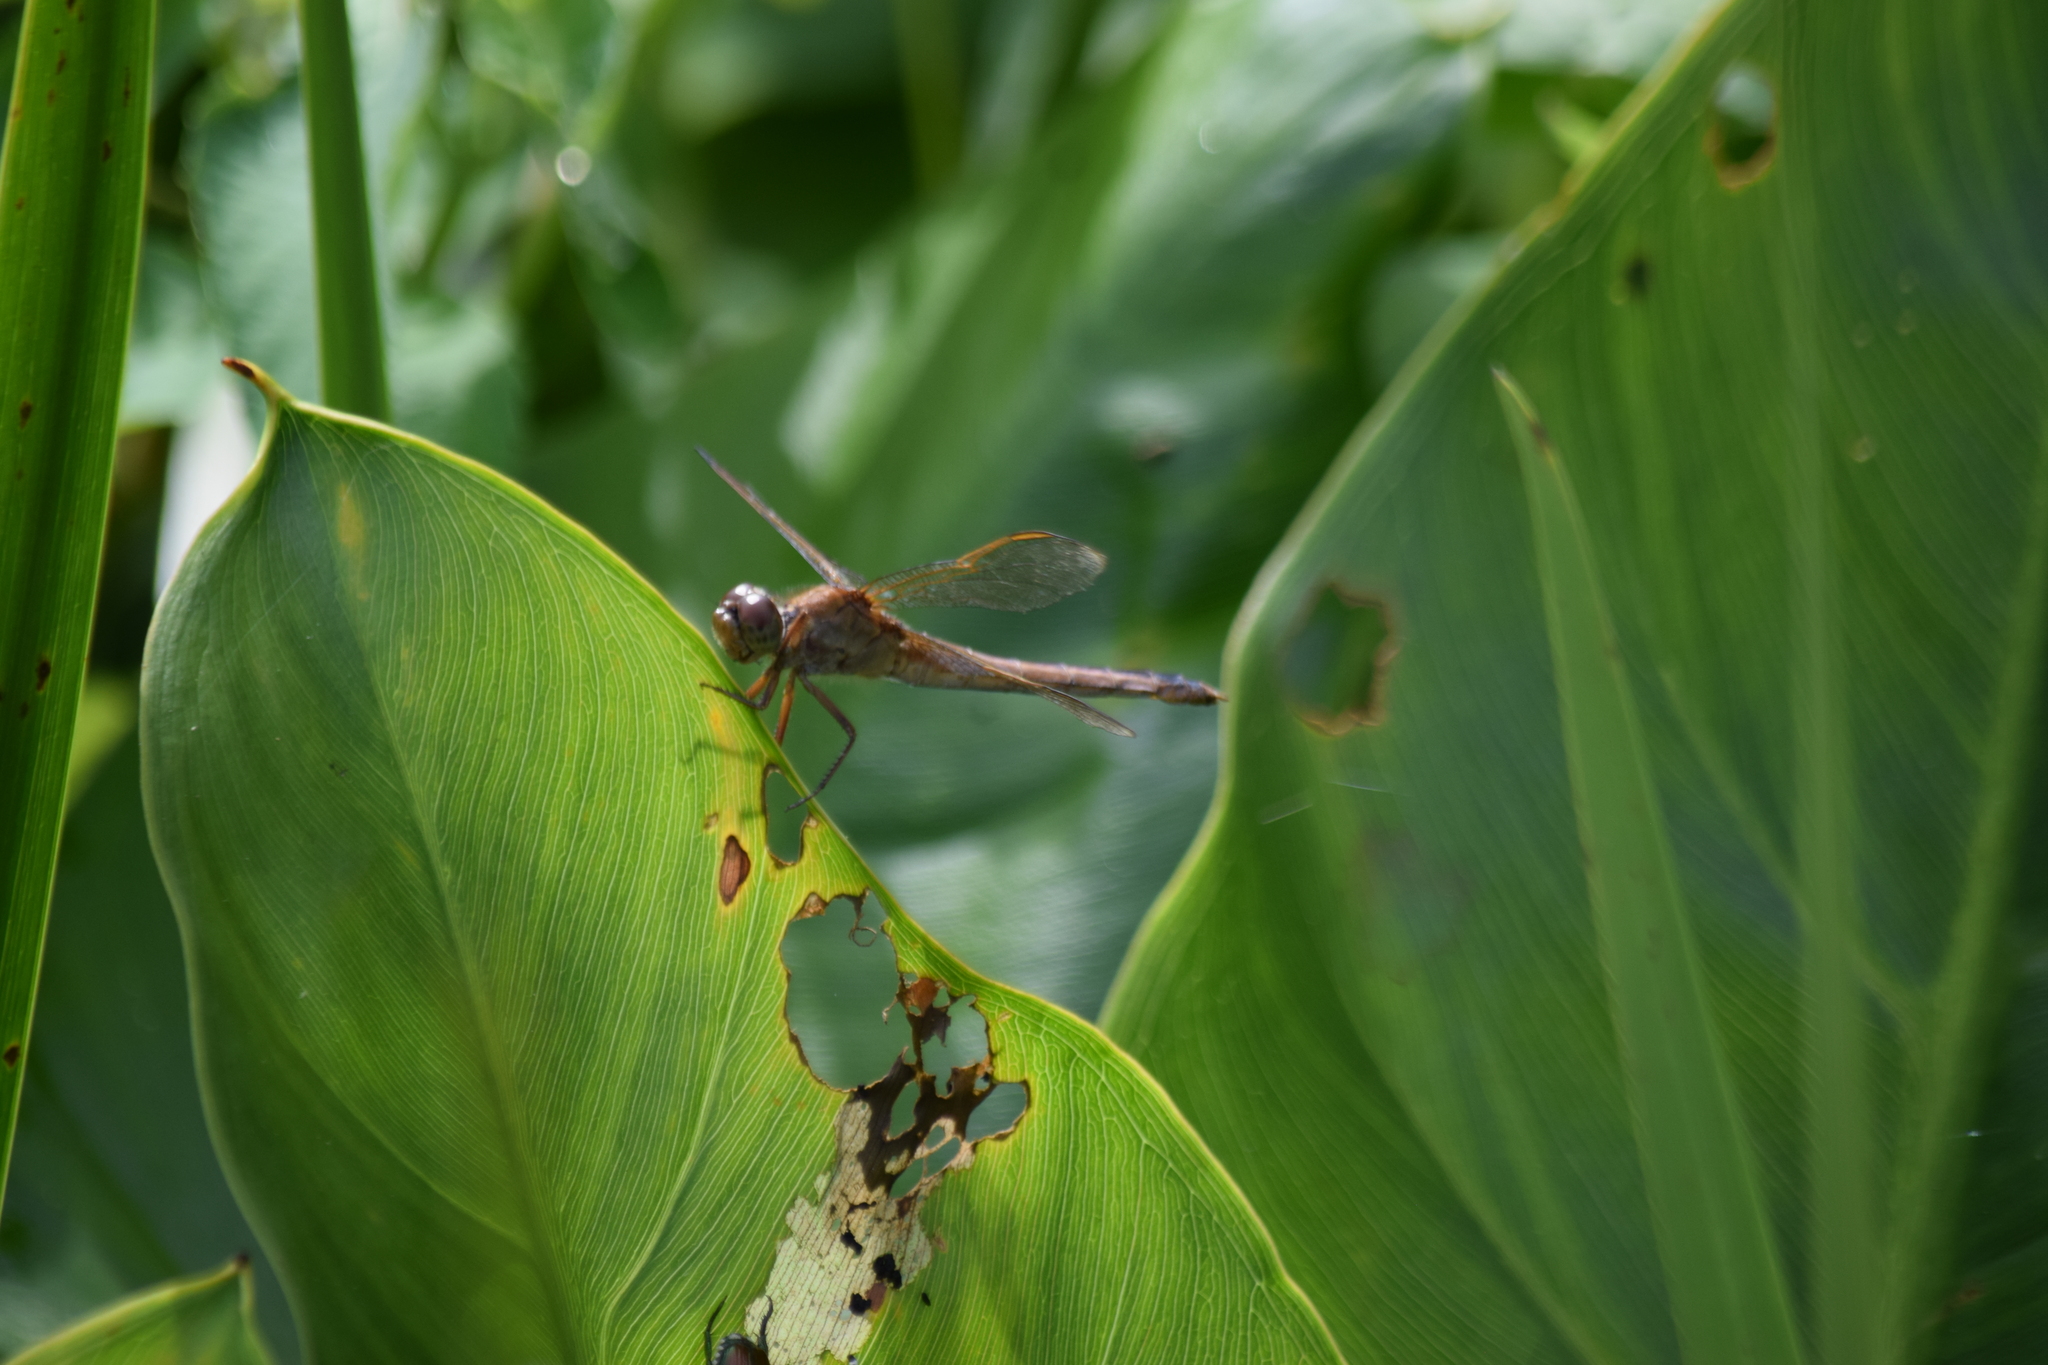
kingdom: Animalia
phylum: Arthropoda
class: Insecta
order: Odonata
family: Libellulidae
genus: Libellula
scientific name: Libellula needhami
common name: Needham's skimmer
